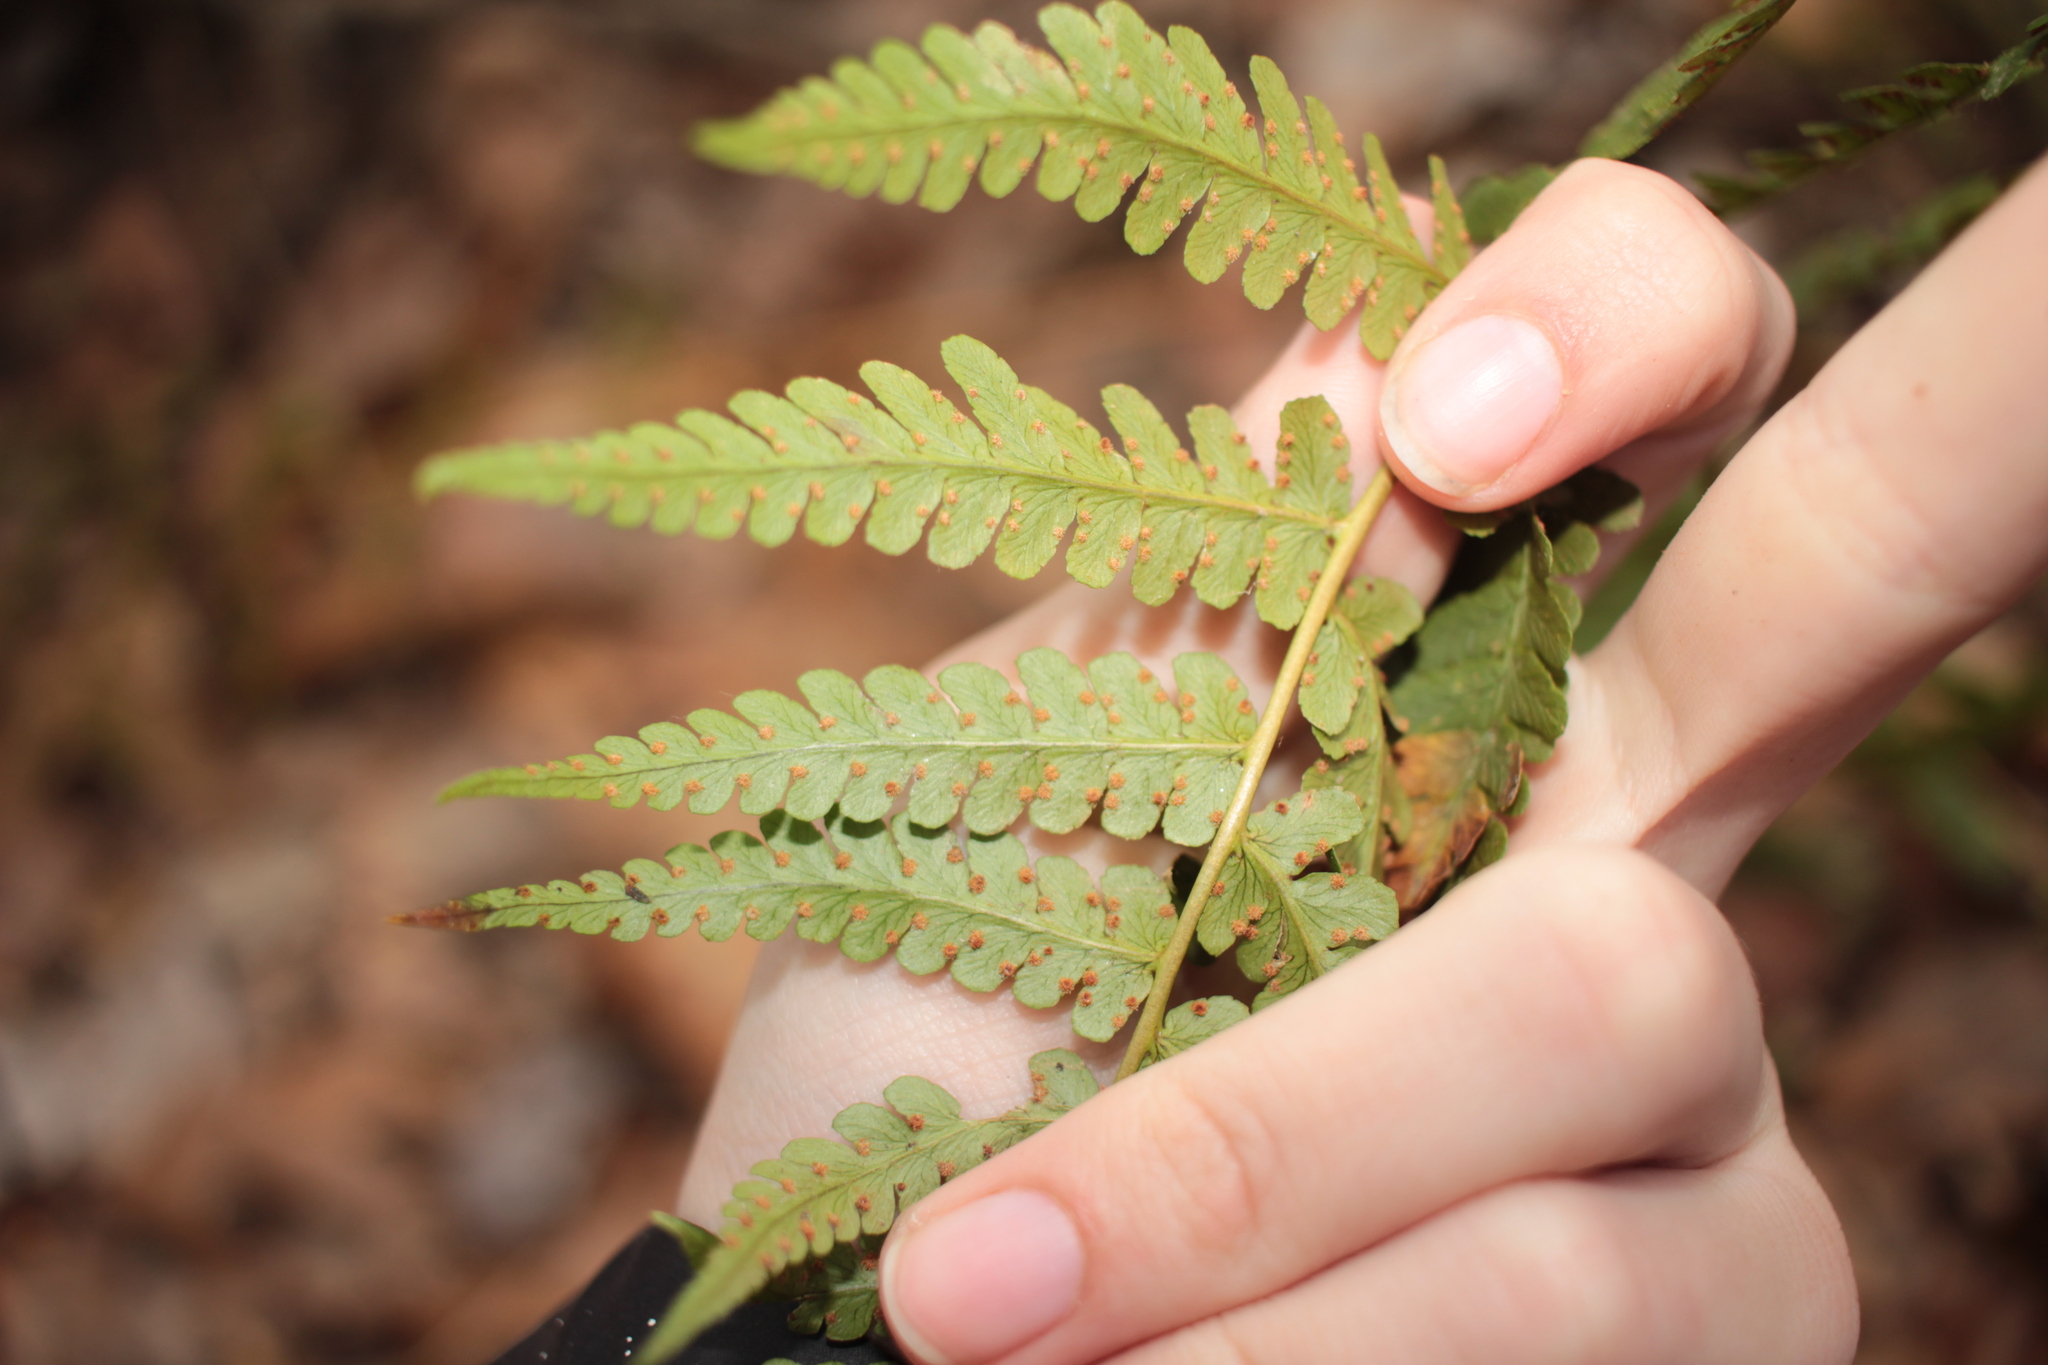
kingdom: Plantae
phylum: Tracheophyta
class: Polypodiopsida
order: Polypodiales
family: Dryopteridaceae
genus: Dryopteris
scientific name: Dryopteris marginalis
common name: Marginal wood fern
